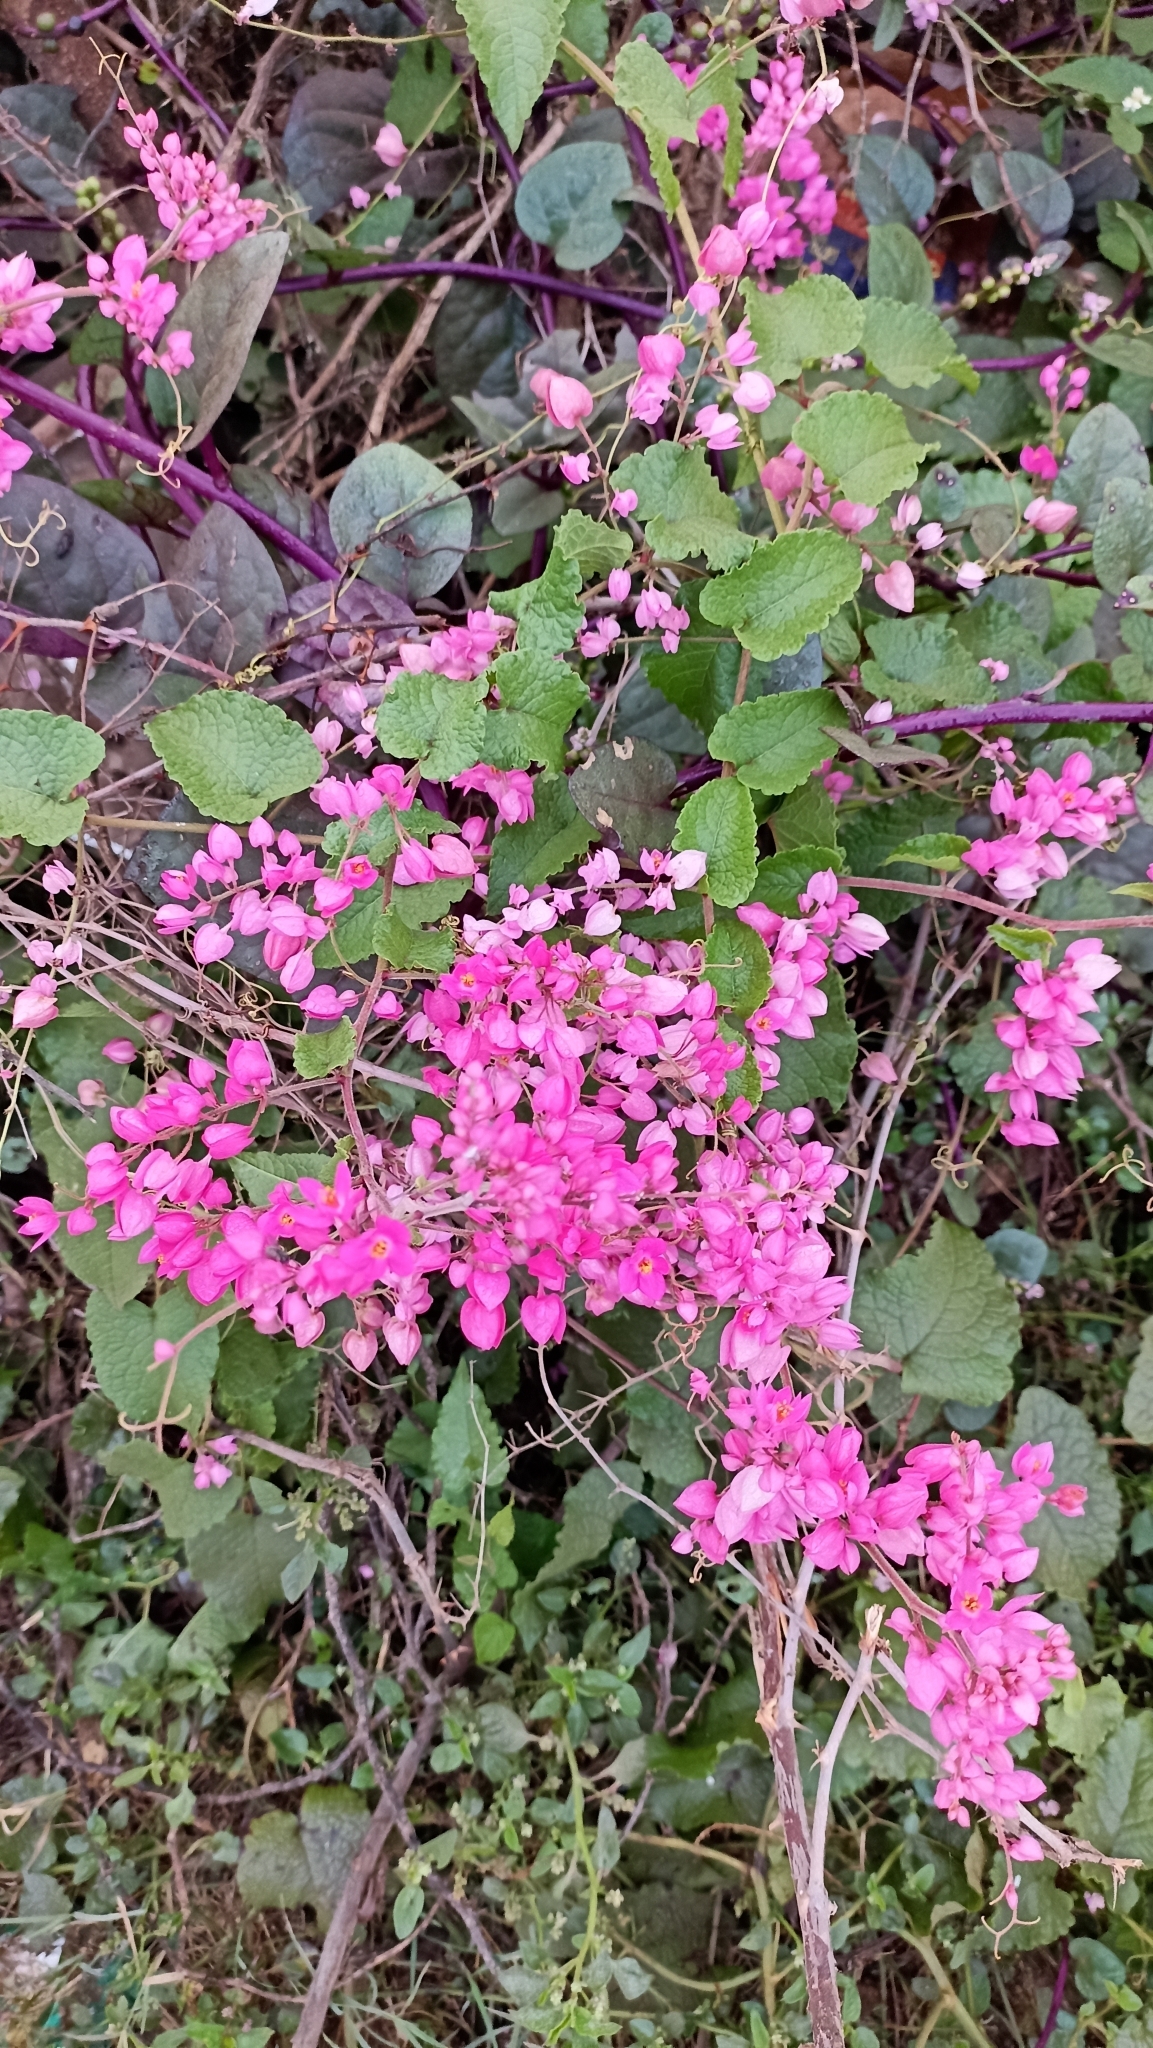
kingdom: Plantae
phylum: Tracheophyta
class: Magnoliopsida
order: Caryophyllales
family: Polygonaceae
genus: Antigonon
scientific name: Antigonon leptopus
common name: Coral vine
